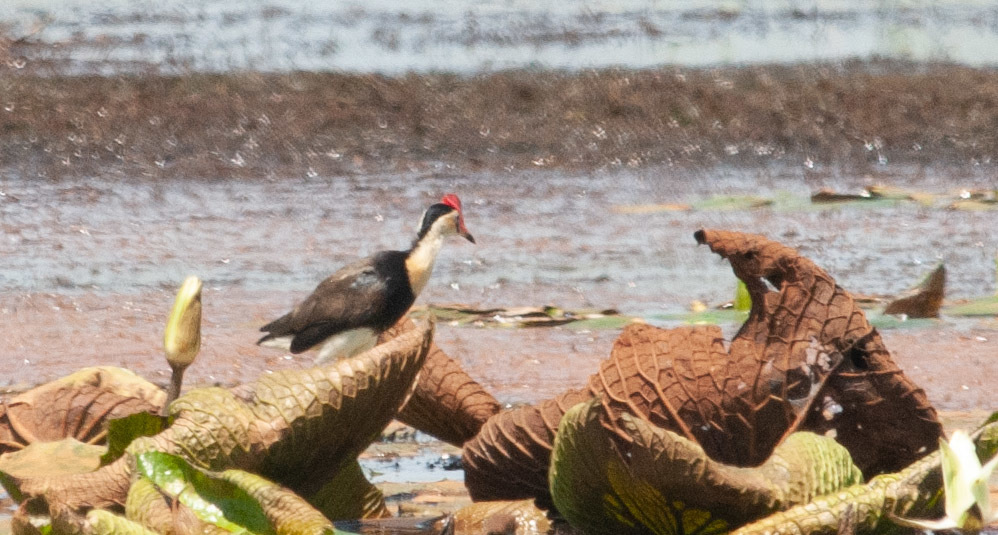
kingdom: Animalia
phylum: Chordata
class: Aves
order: Charadriiformes
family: Jacanidae
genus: Irediparra
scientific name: Irediparra gallinacea
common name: Comb-crested jacana
